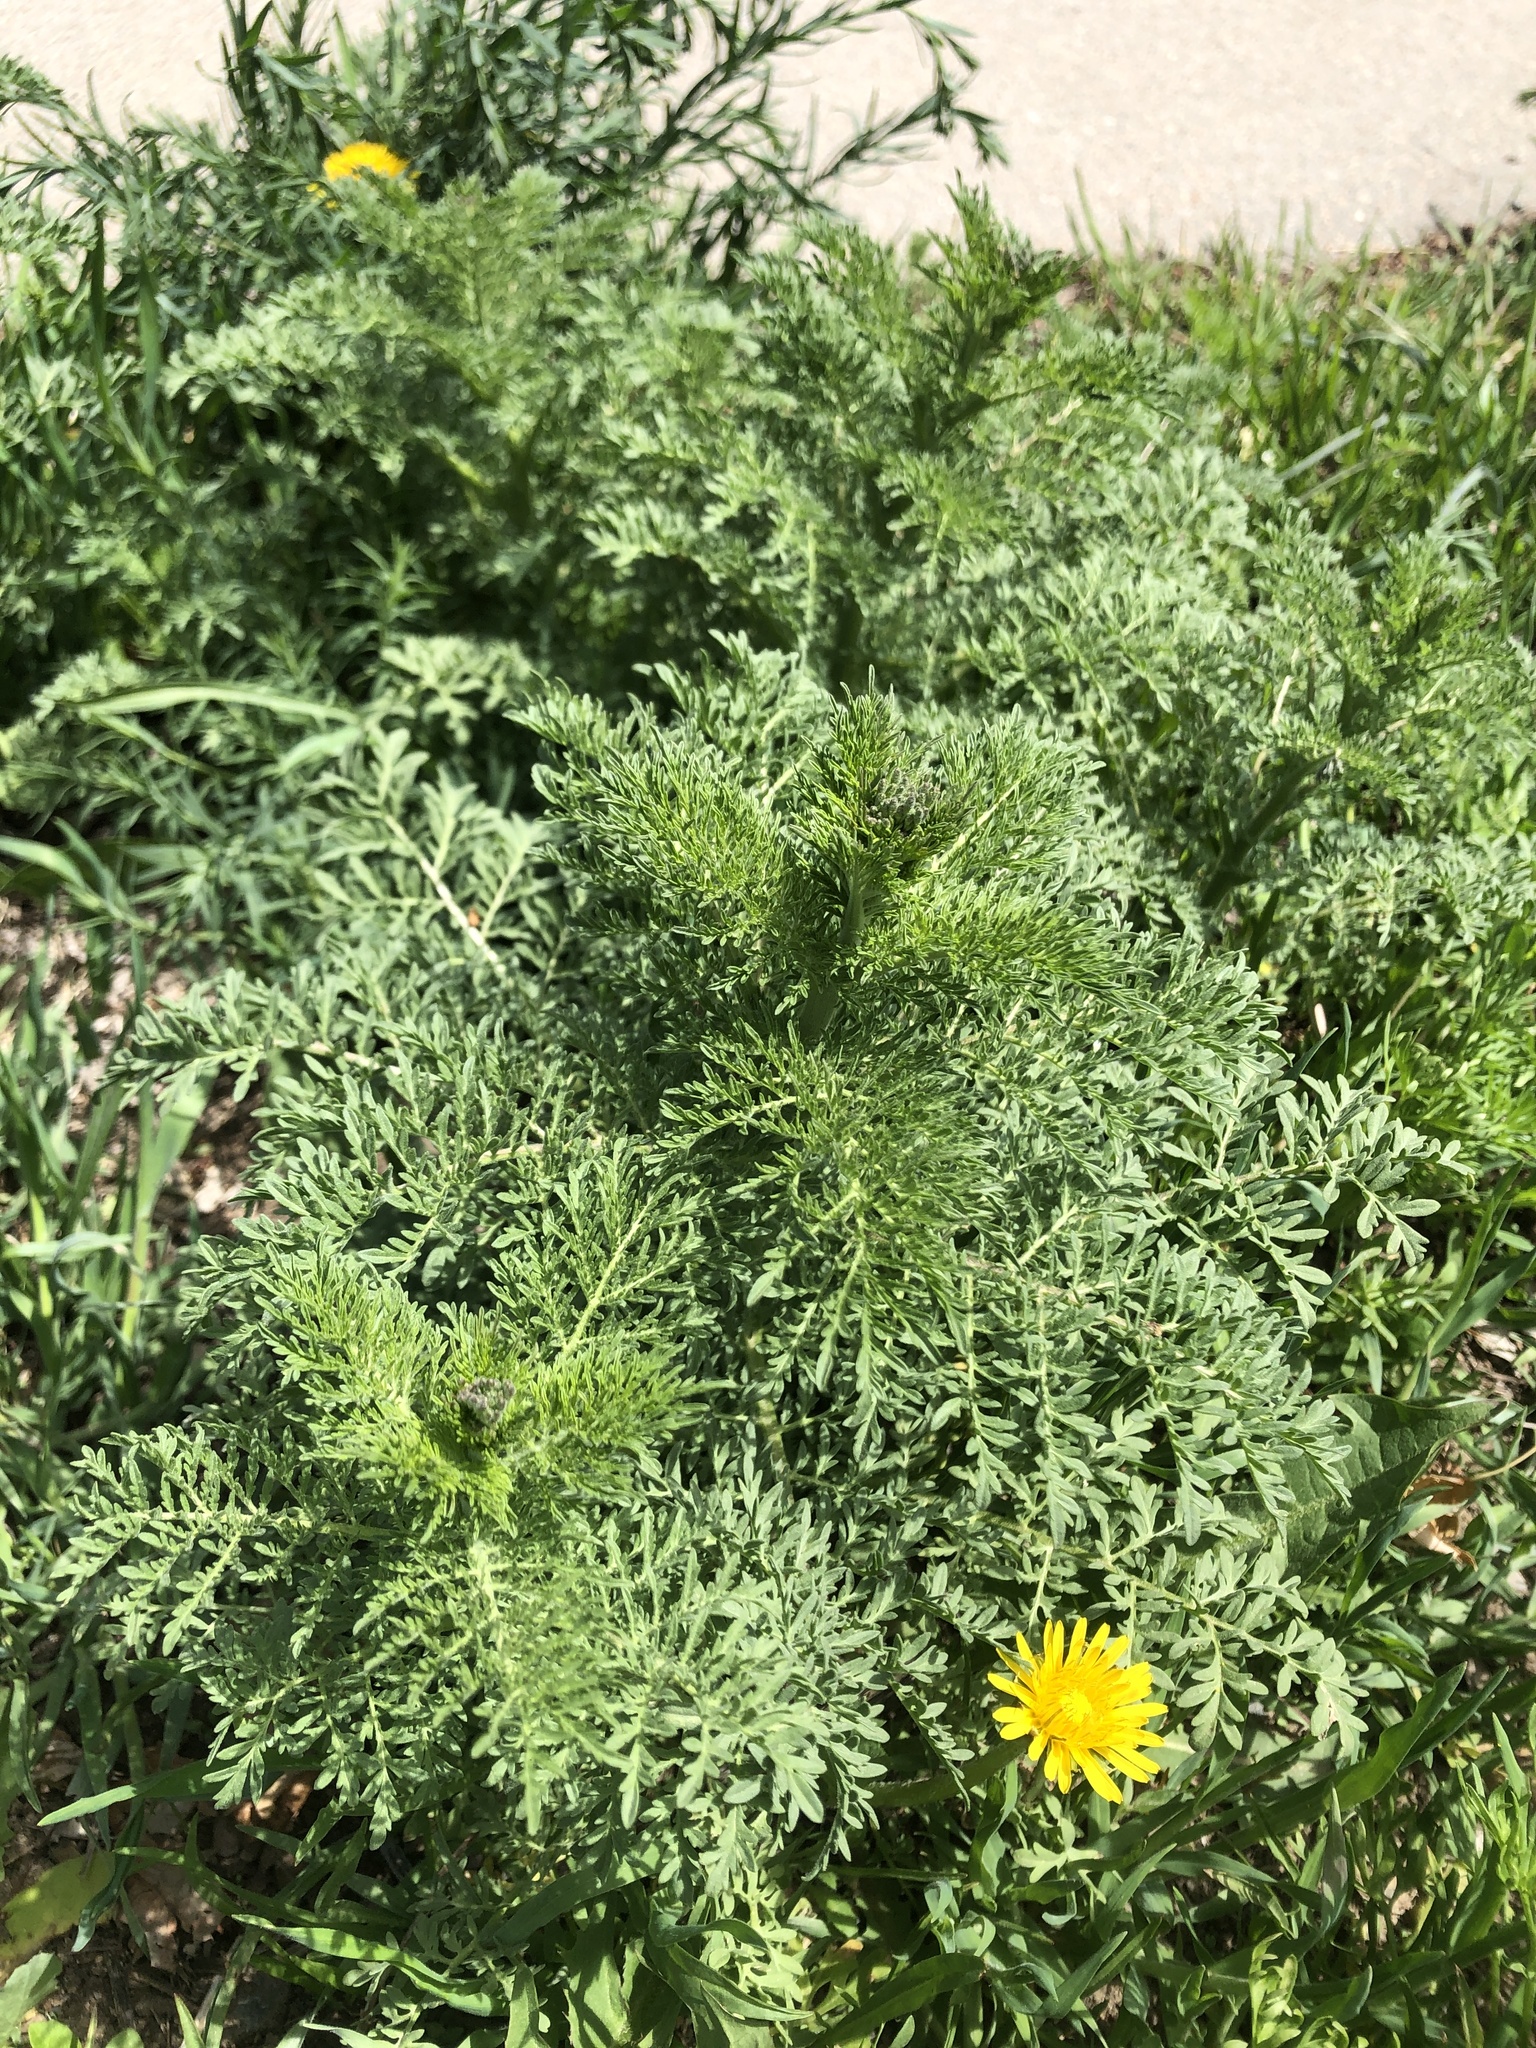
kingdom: Plantae
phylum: Tracheophyta
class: Magnoliopsida
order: Brassicales
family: Brassicaceae
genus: Descurainia
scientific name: Descurainia sophia
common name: Flixweed
